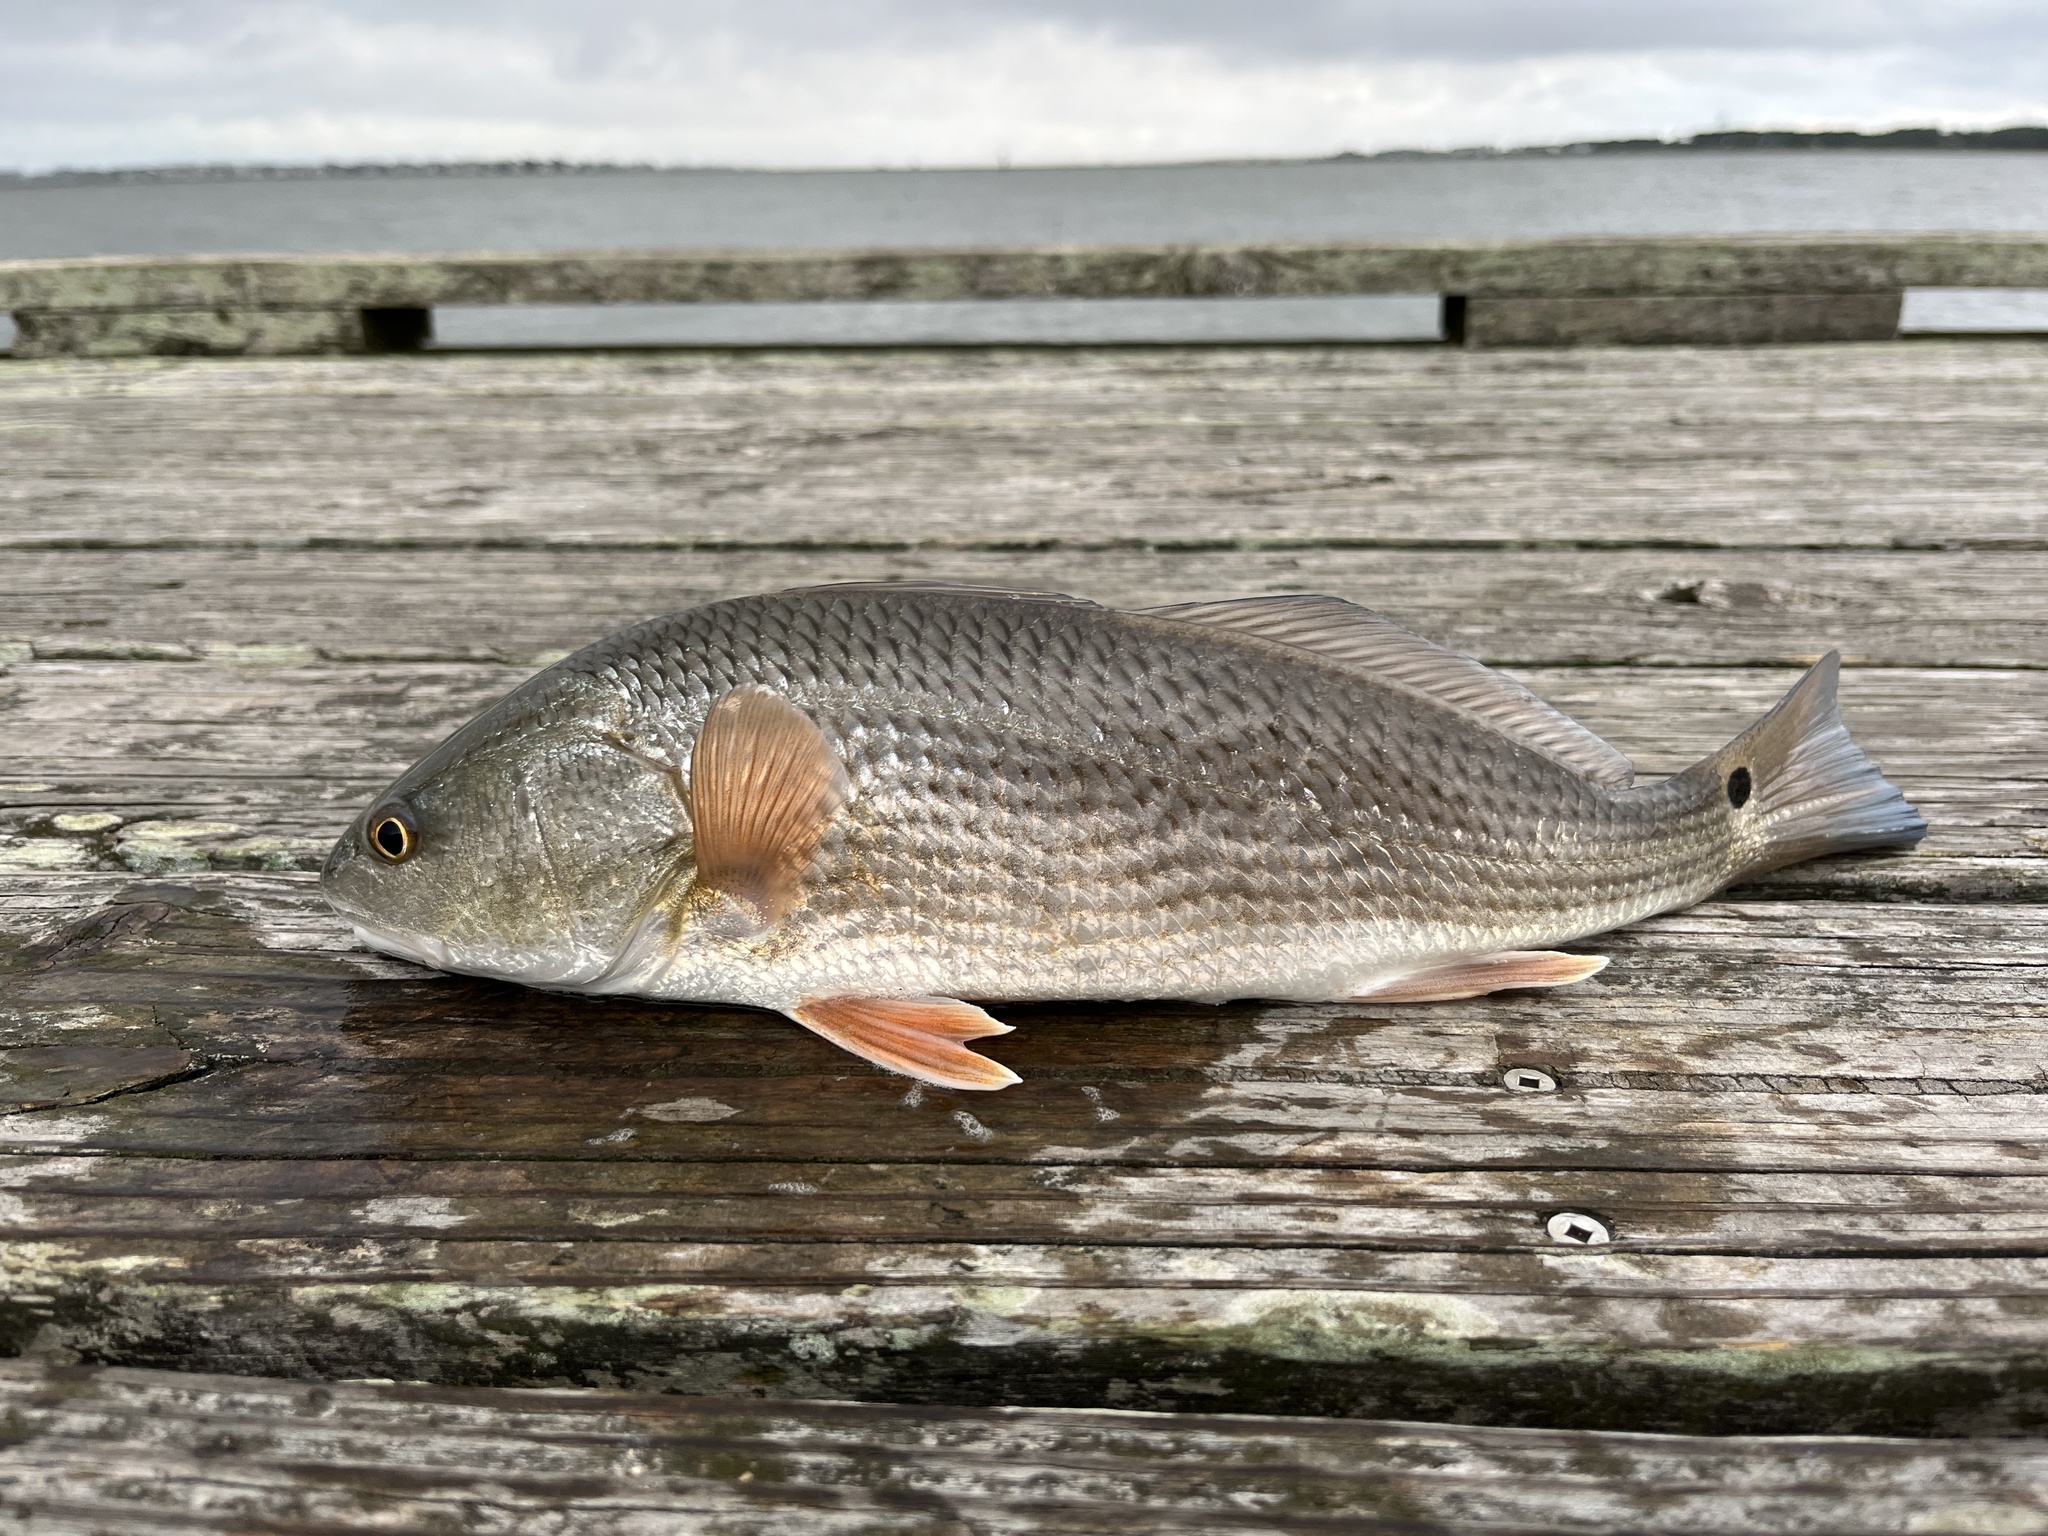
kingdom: Animalia
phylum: Chordata
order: Perciformes
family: Sciaenidae
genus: Sciaenops
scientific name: Sciaenops ocellatus
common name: Red drum
